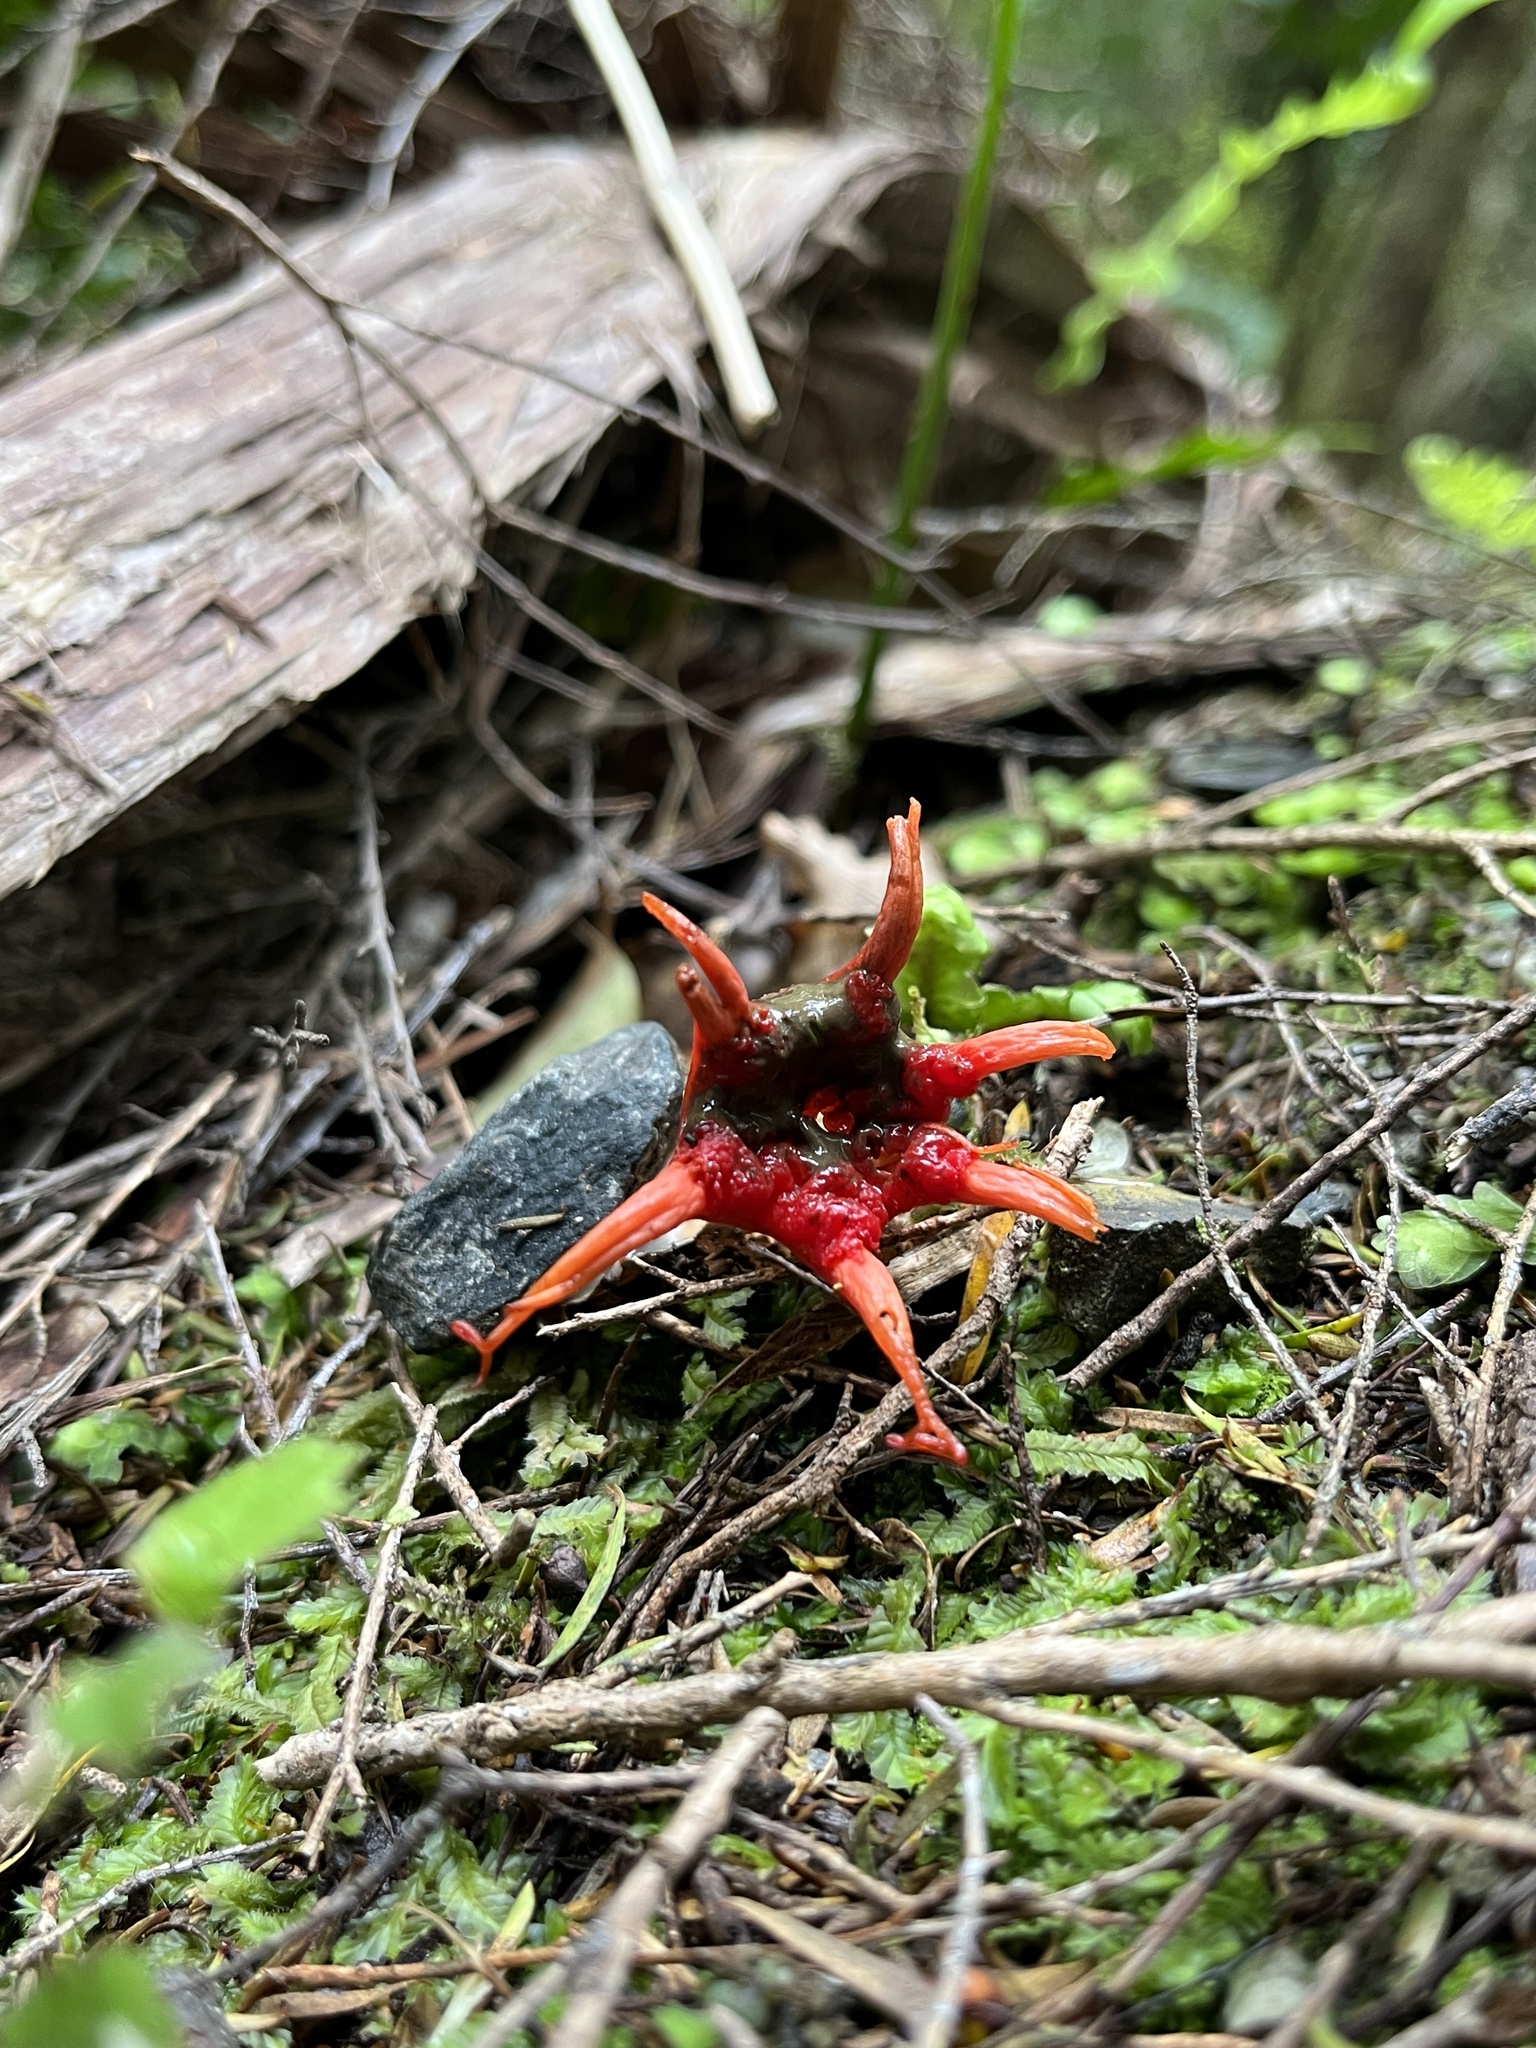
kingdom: Fungi
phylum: Basidiomycota
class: Agaricomycetes
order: Phallales
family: Phallaceae
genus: Aseroe
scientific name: Aseroe rubra
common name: Starfish fungus
